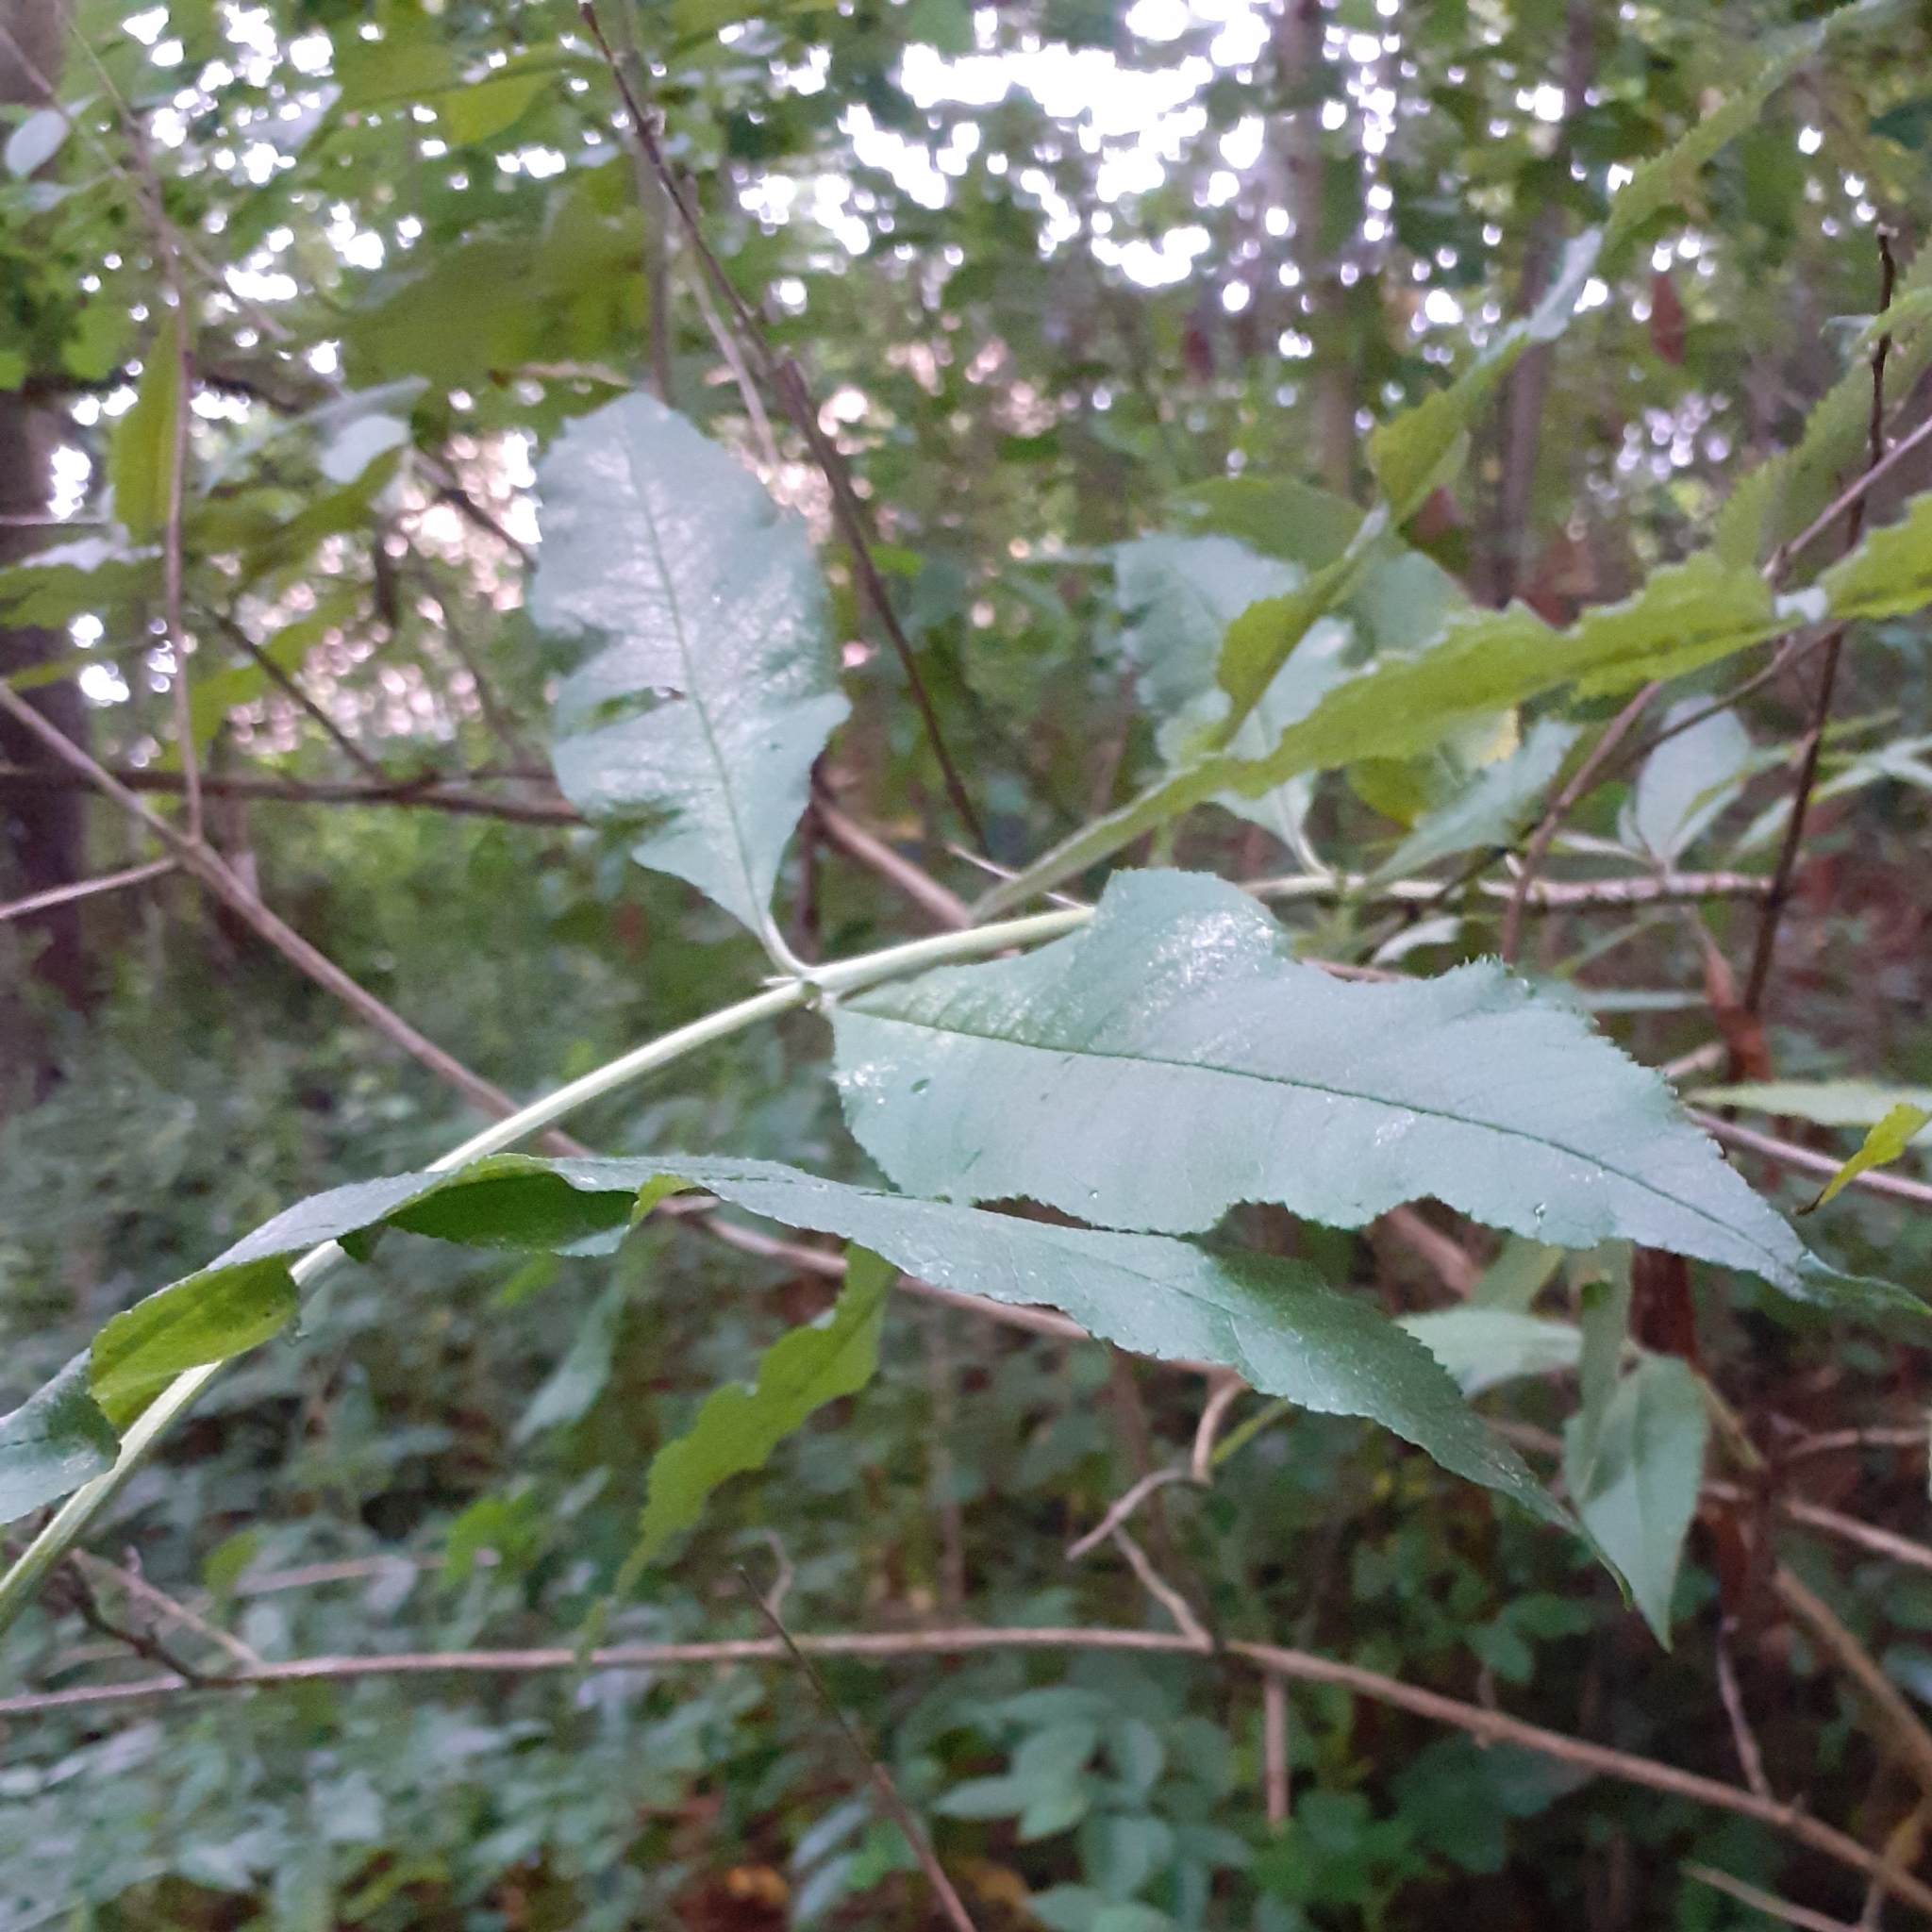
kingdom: Plantae
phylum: Tracheophyta
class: Magnoliopsida
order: Lamiales
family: Scrophulariaceae
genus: Buddleja
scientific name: Buddleja davidii
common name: Butterfly-bush
